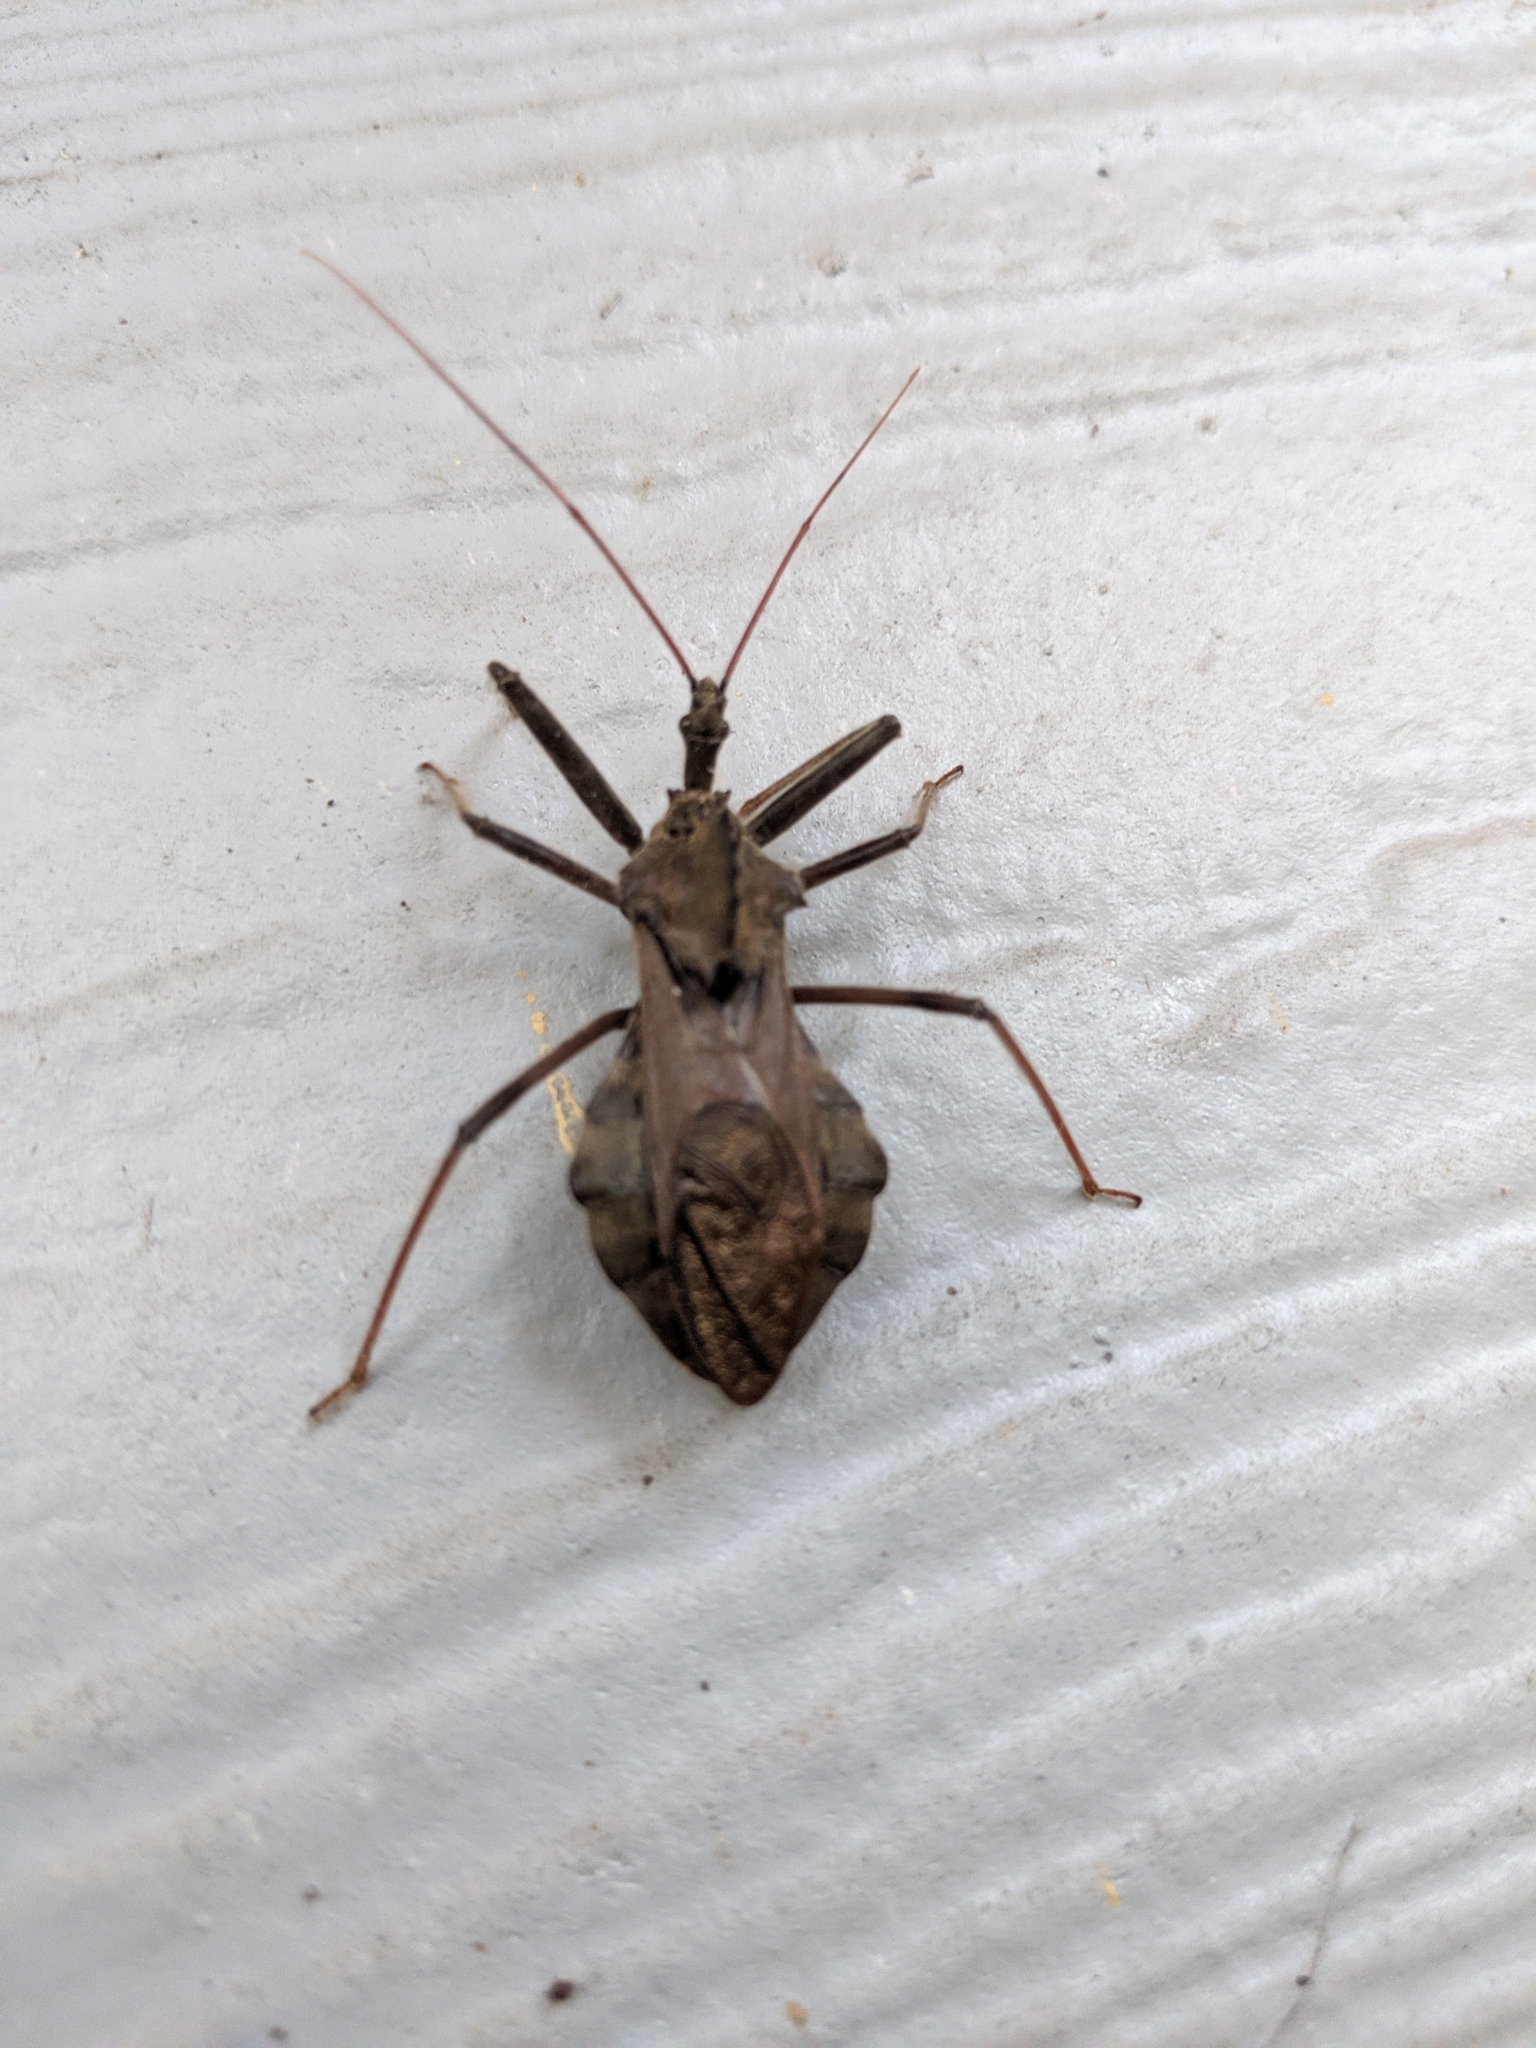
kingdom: Animalia
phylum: Arthropoda
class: Insecta
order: Hemiptera
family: Reduviidae
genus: Arilus
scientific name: Arilus cristatus
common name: North american wheel bug
